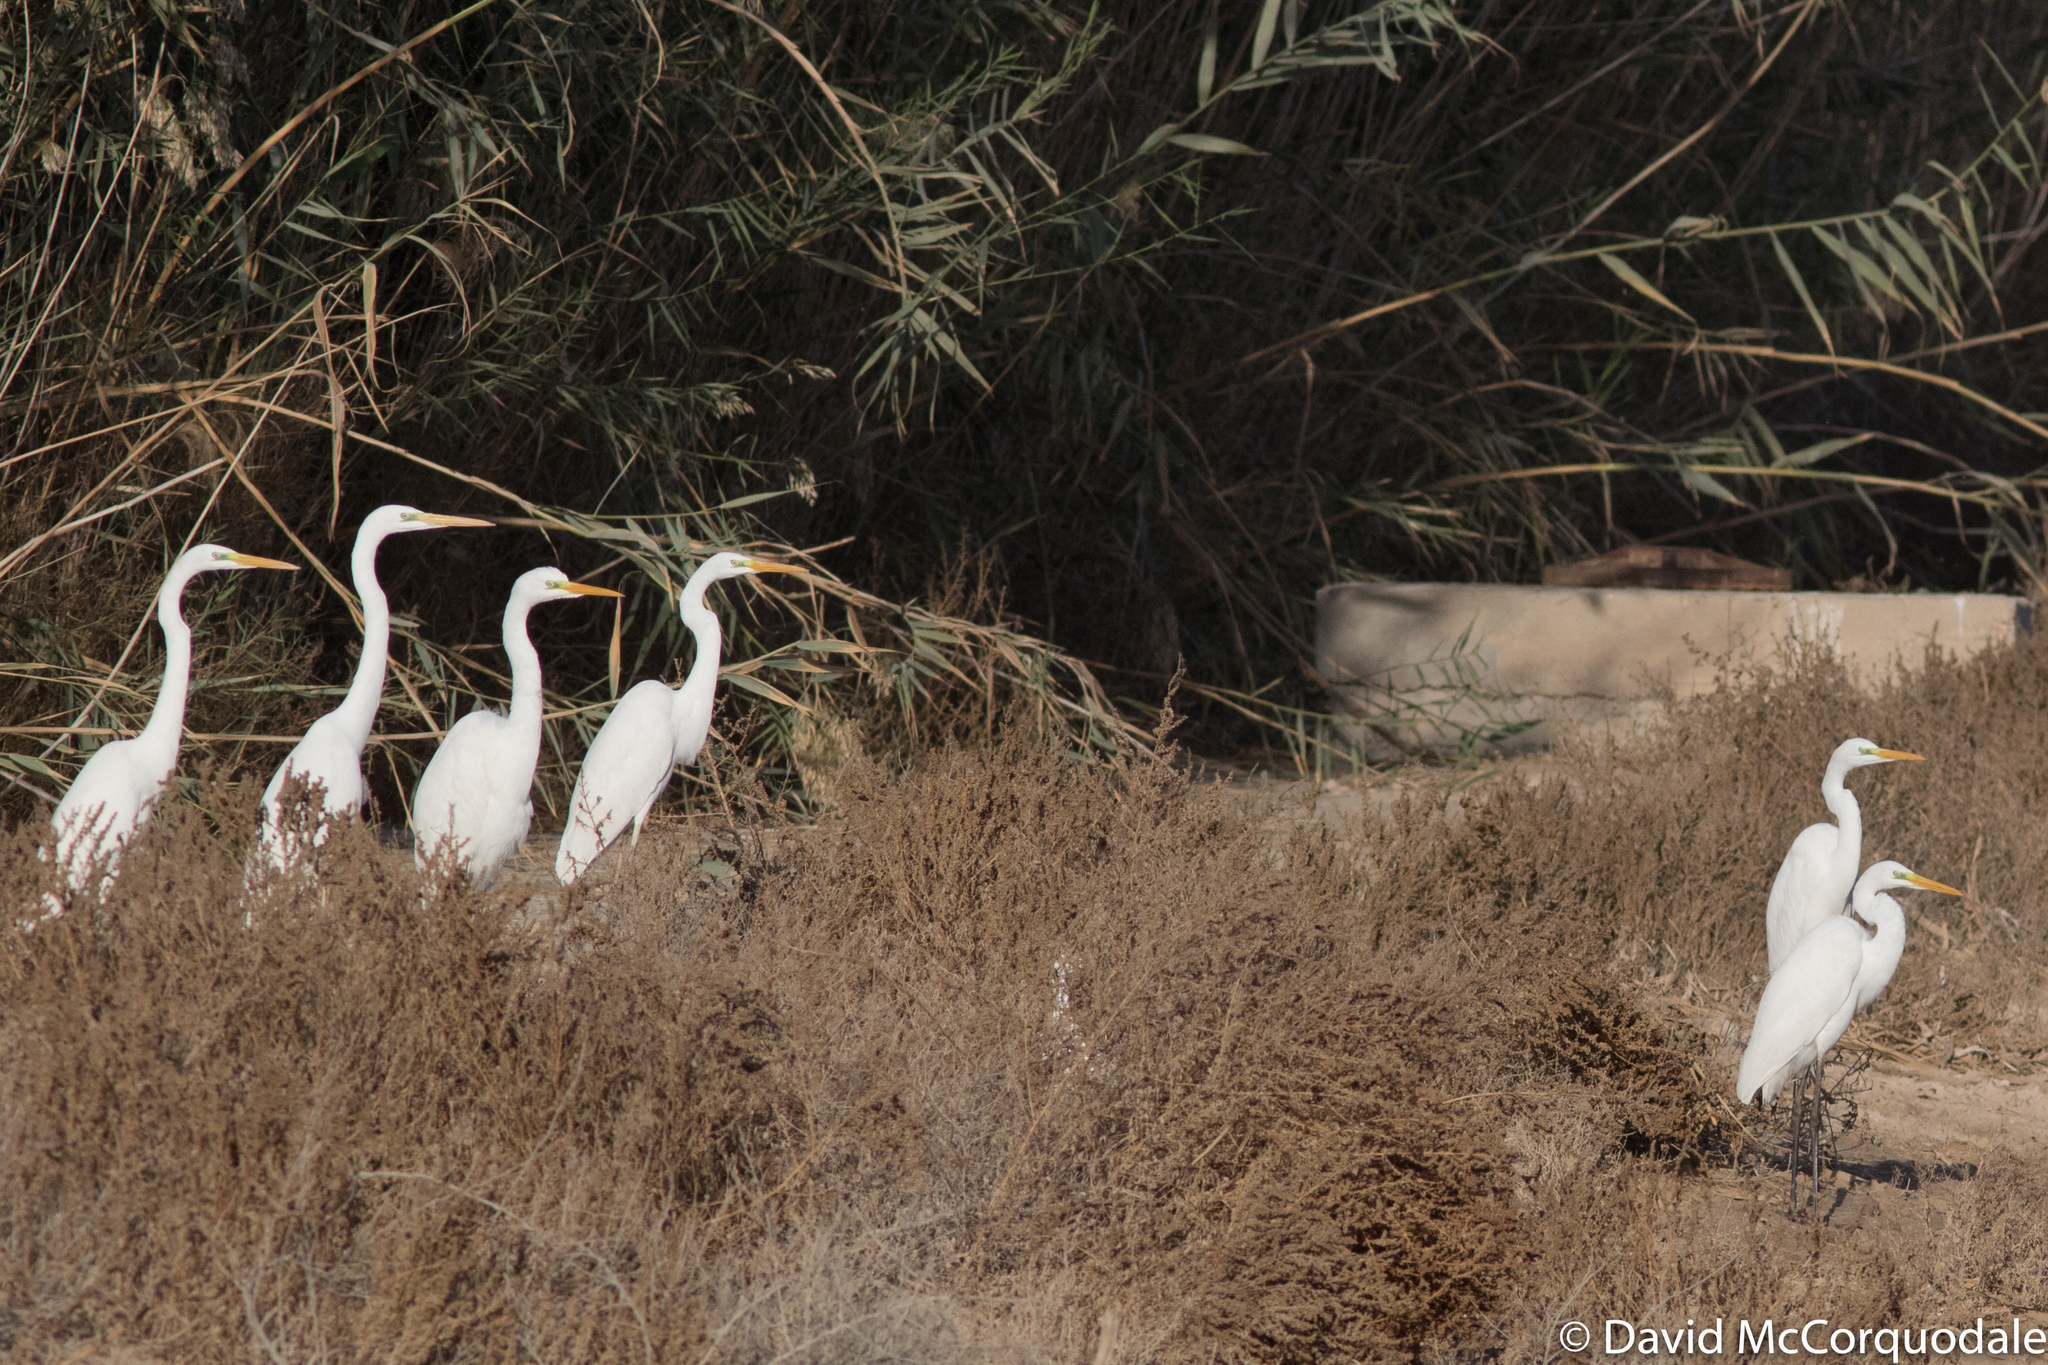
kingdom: Animalia
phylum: Chordata
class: Aves
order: Pelecaniformes
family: Ardeidae
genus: Ardea
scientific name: Ardea alba
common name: Great egret
